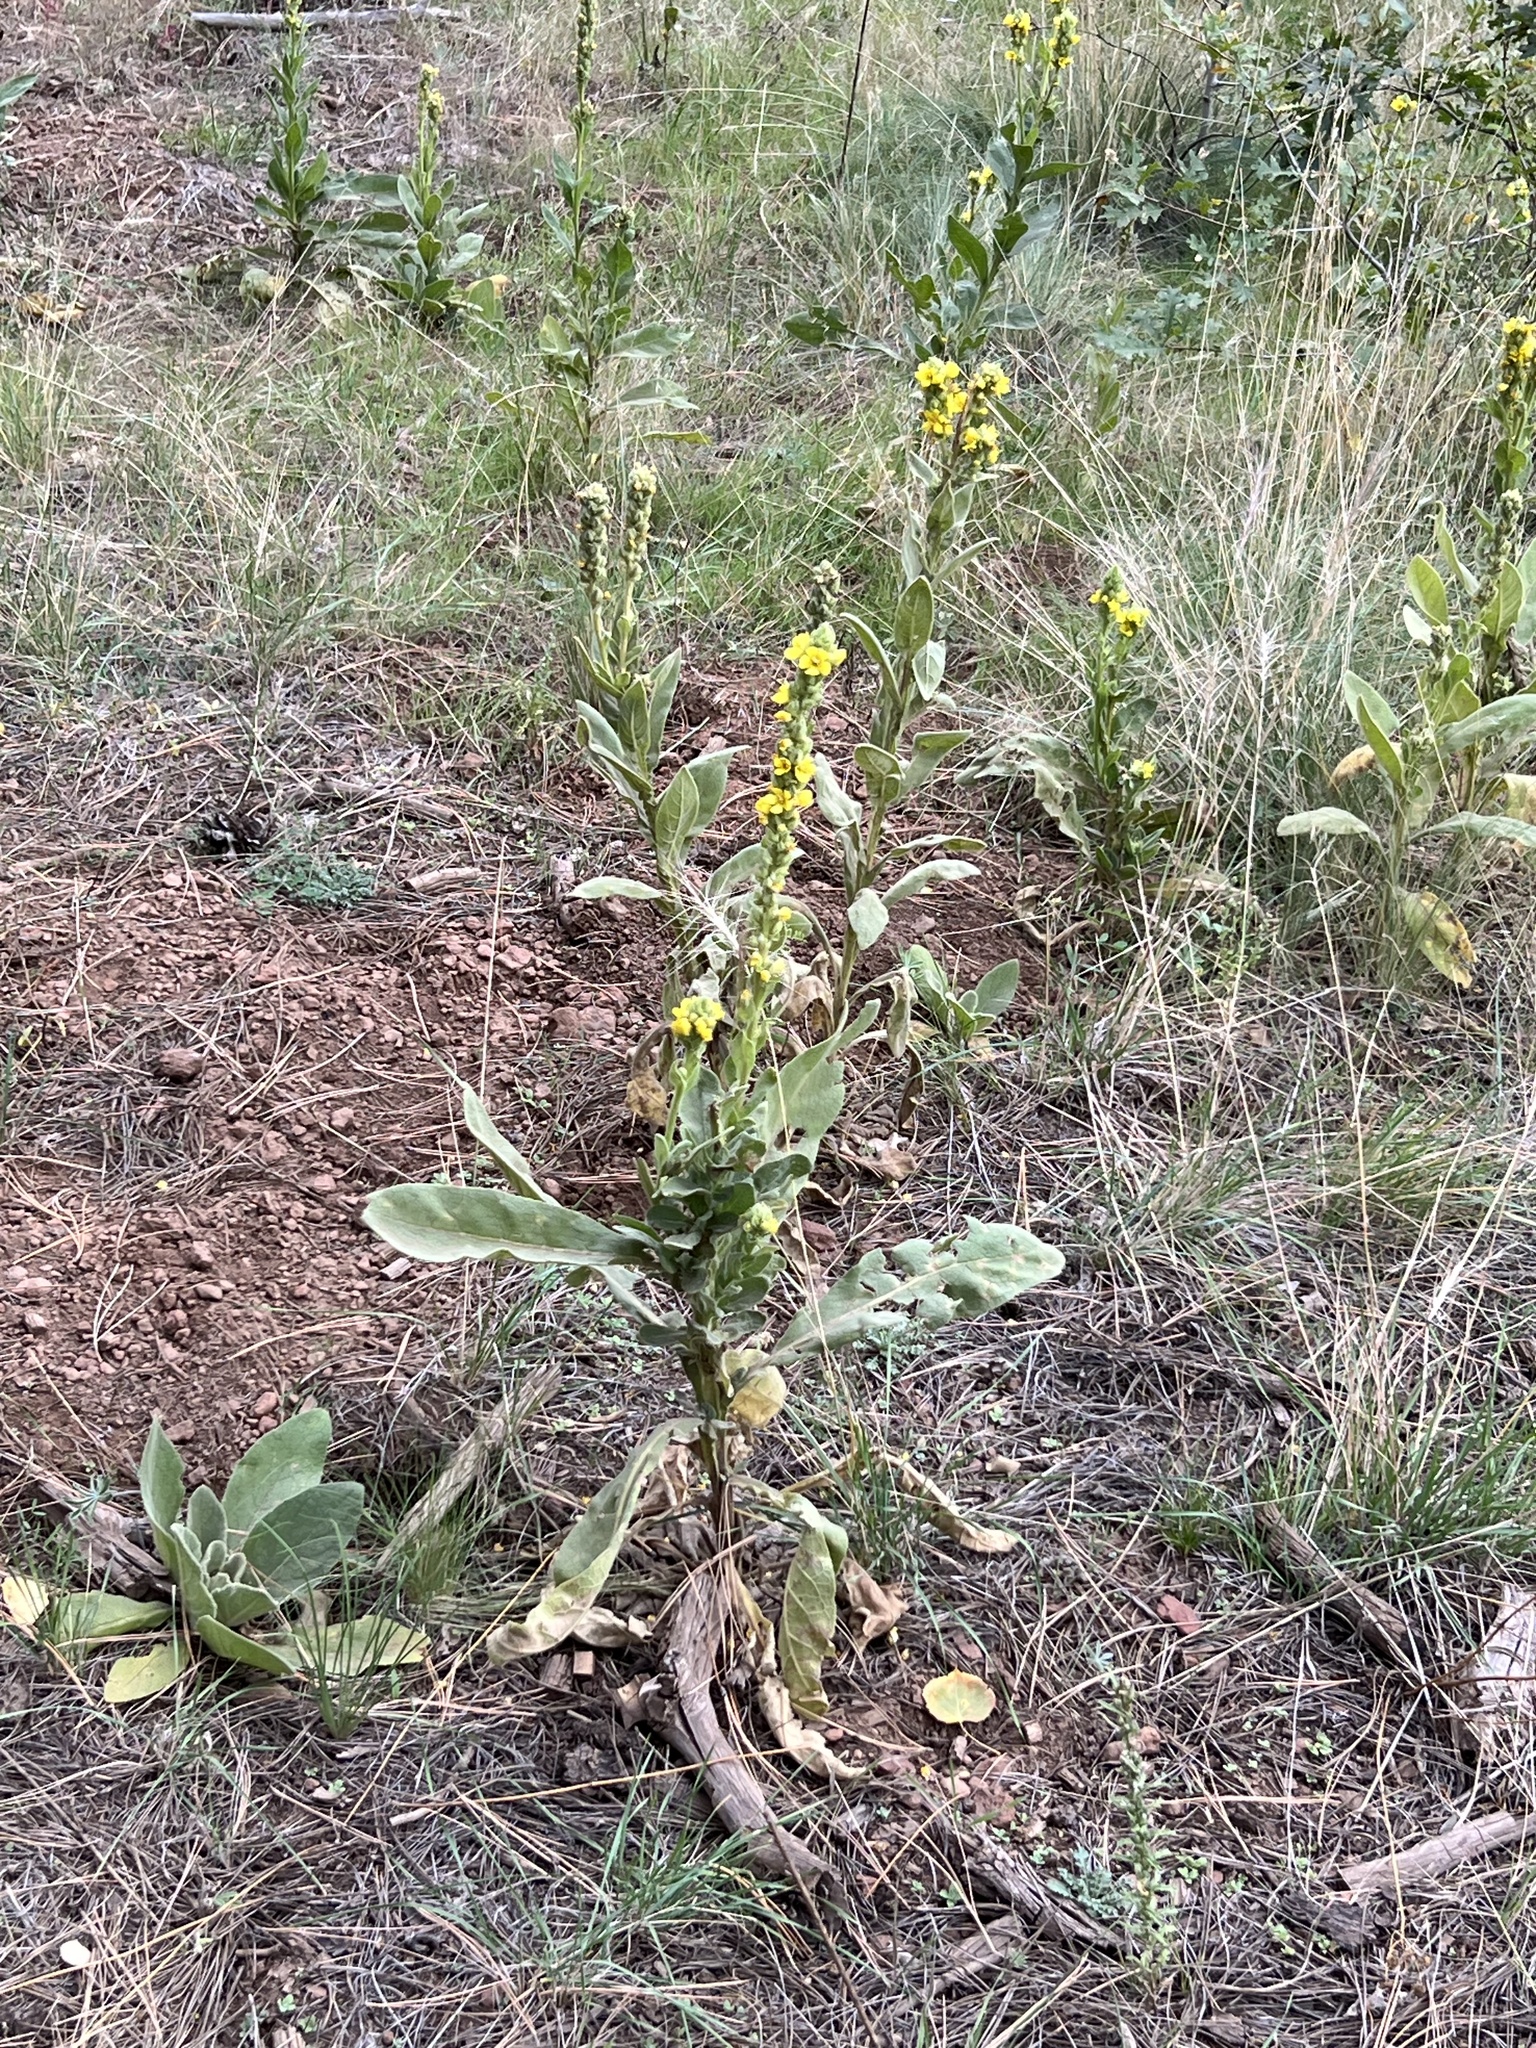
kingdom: Plantae
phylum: Tracheophyta
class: Magnoliopsida
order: Lamiales
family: Scrophulariaceae
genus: Verbascum
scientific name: Verbascum thapsus
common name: Common mullein
